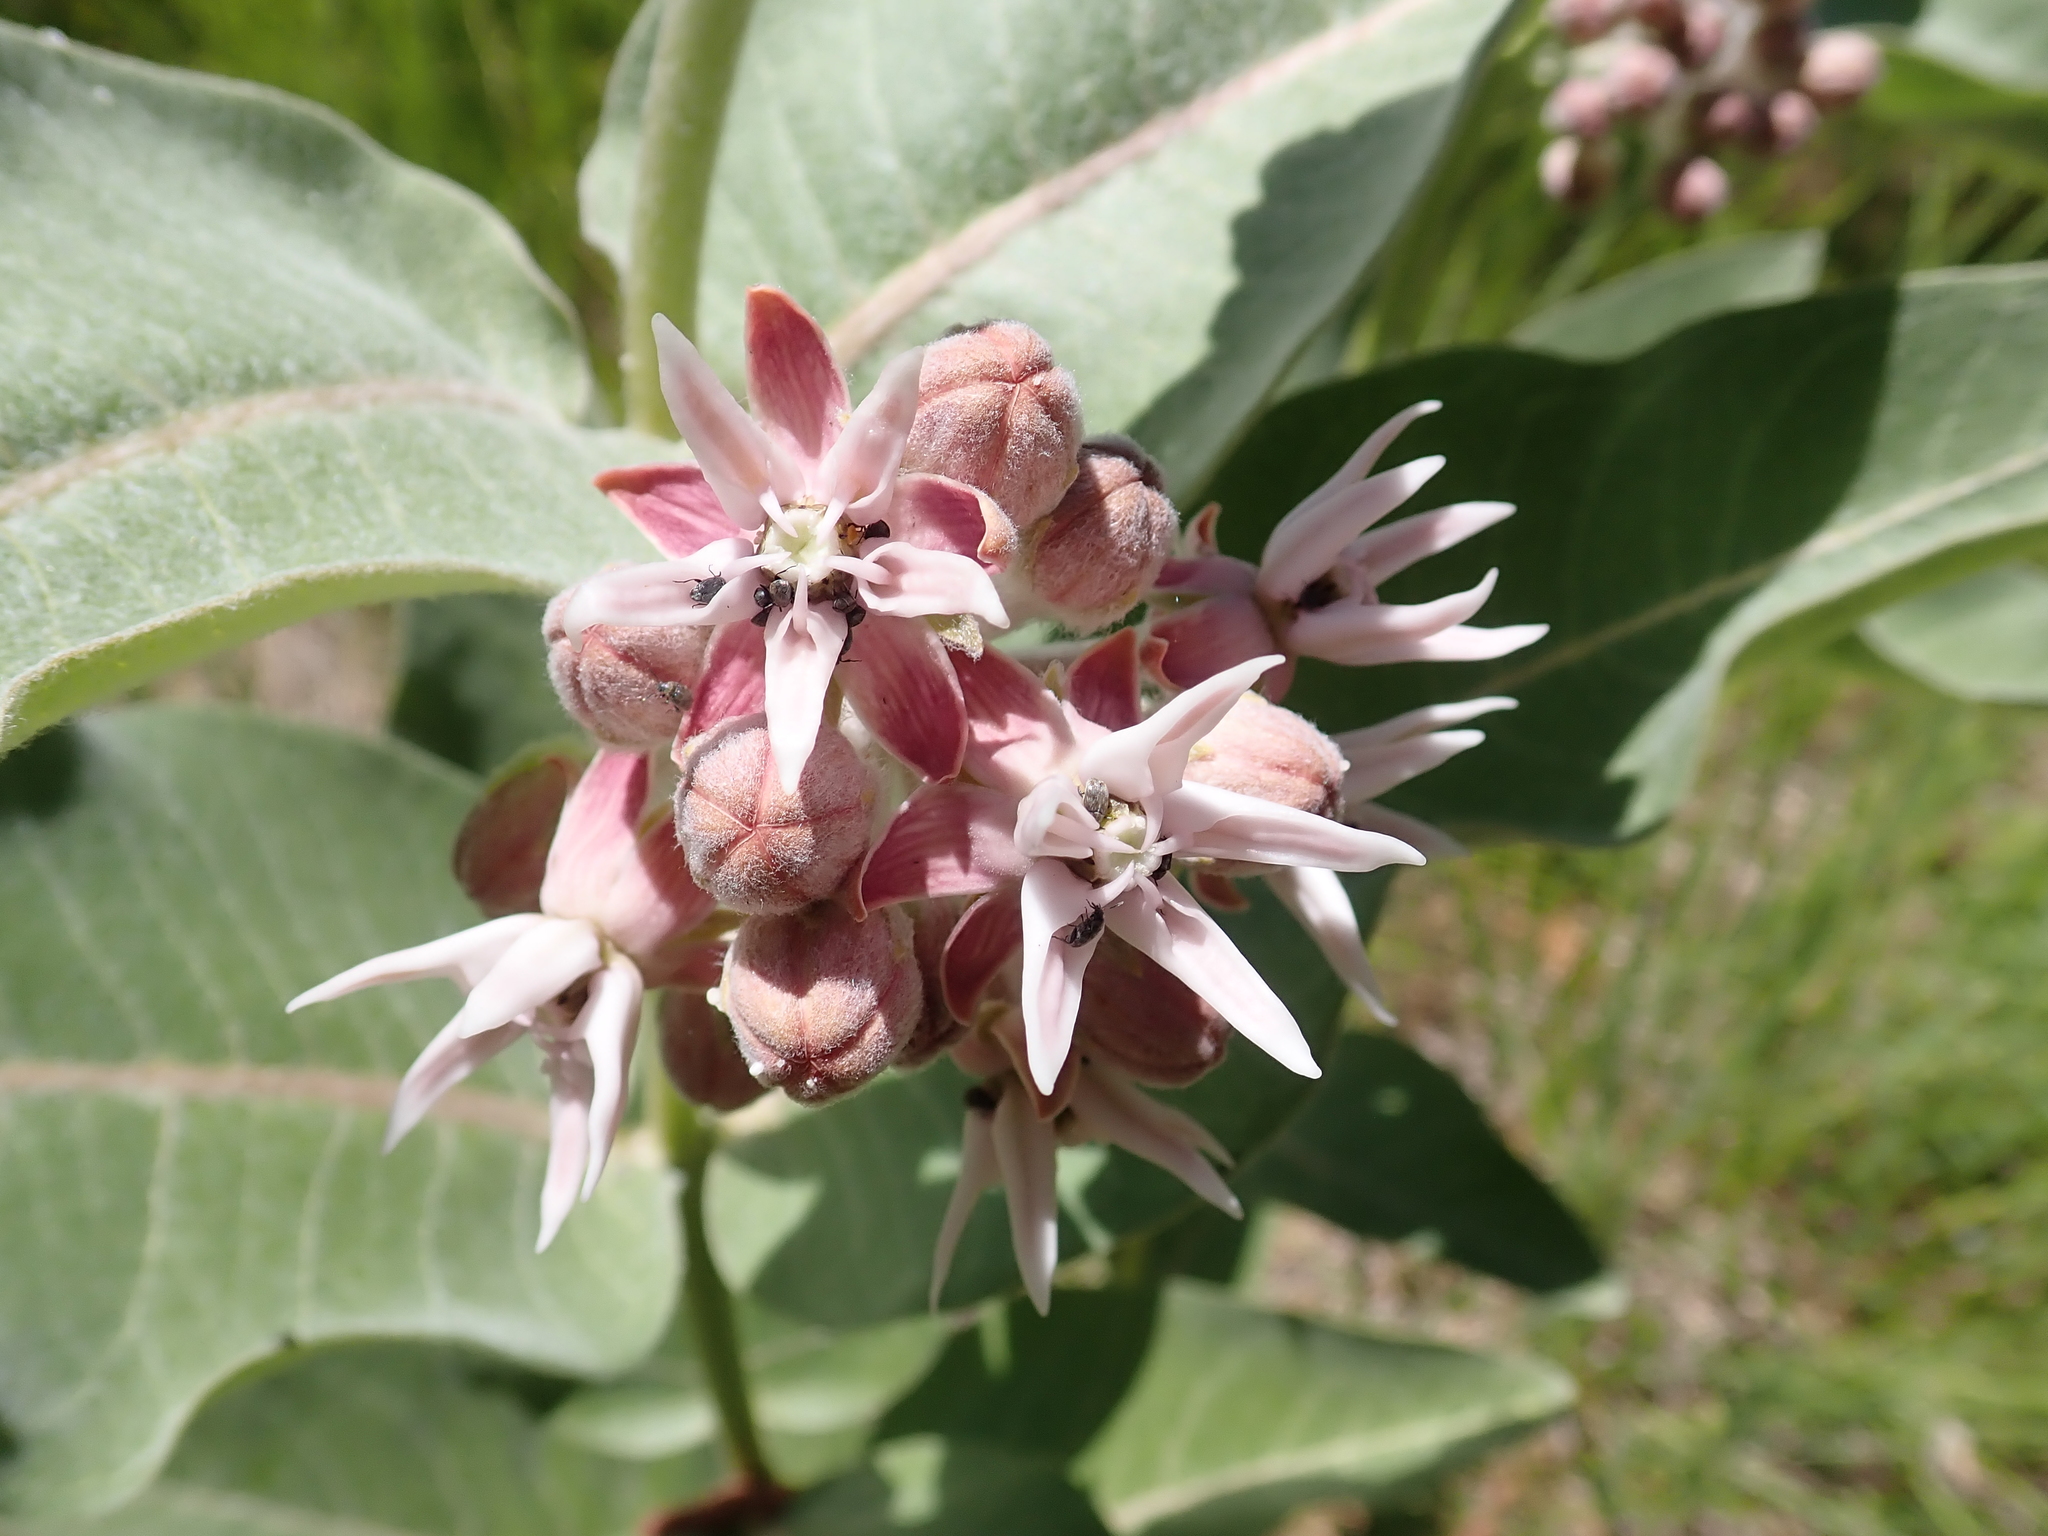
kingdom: Plantae
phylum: Tracheophyta
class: Magnoliopsida
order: Gentianales
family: Apocynaceae
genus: Asclepias
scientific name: Asclepias speciosa
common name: Showy milkweed
